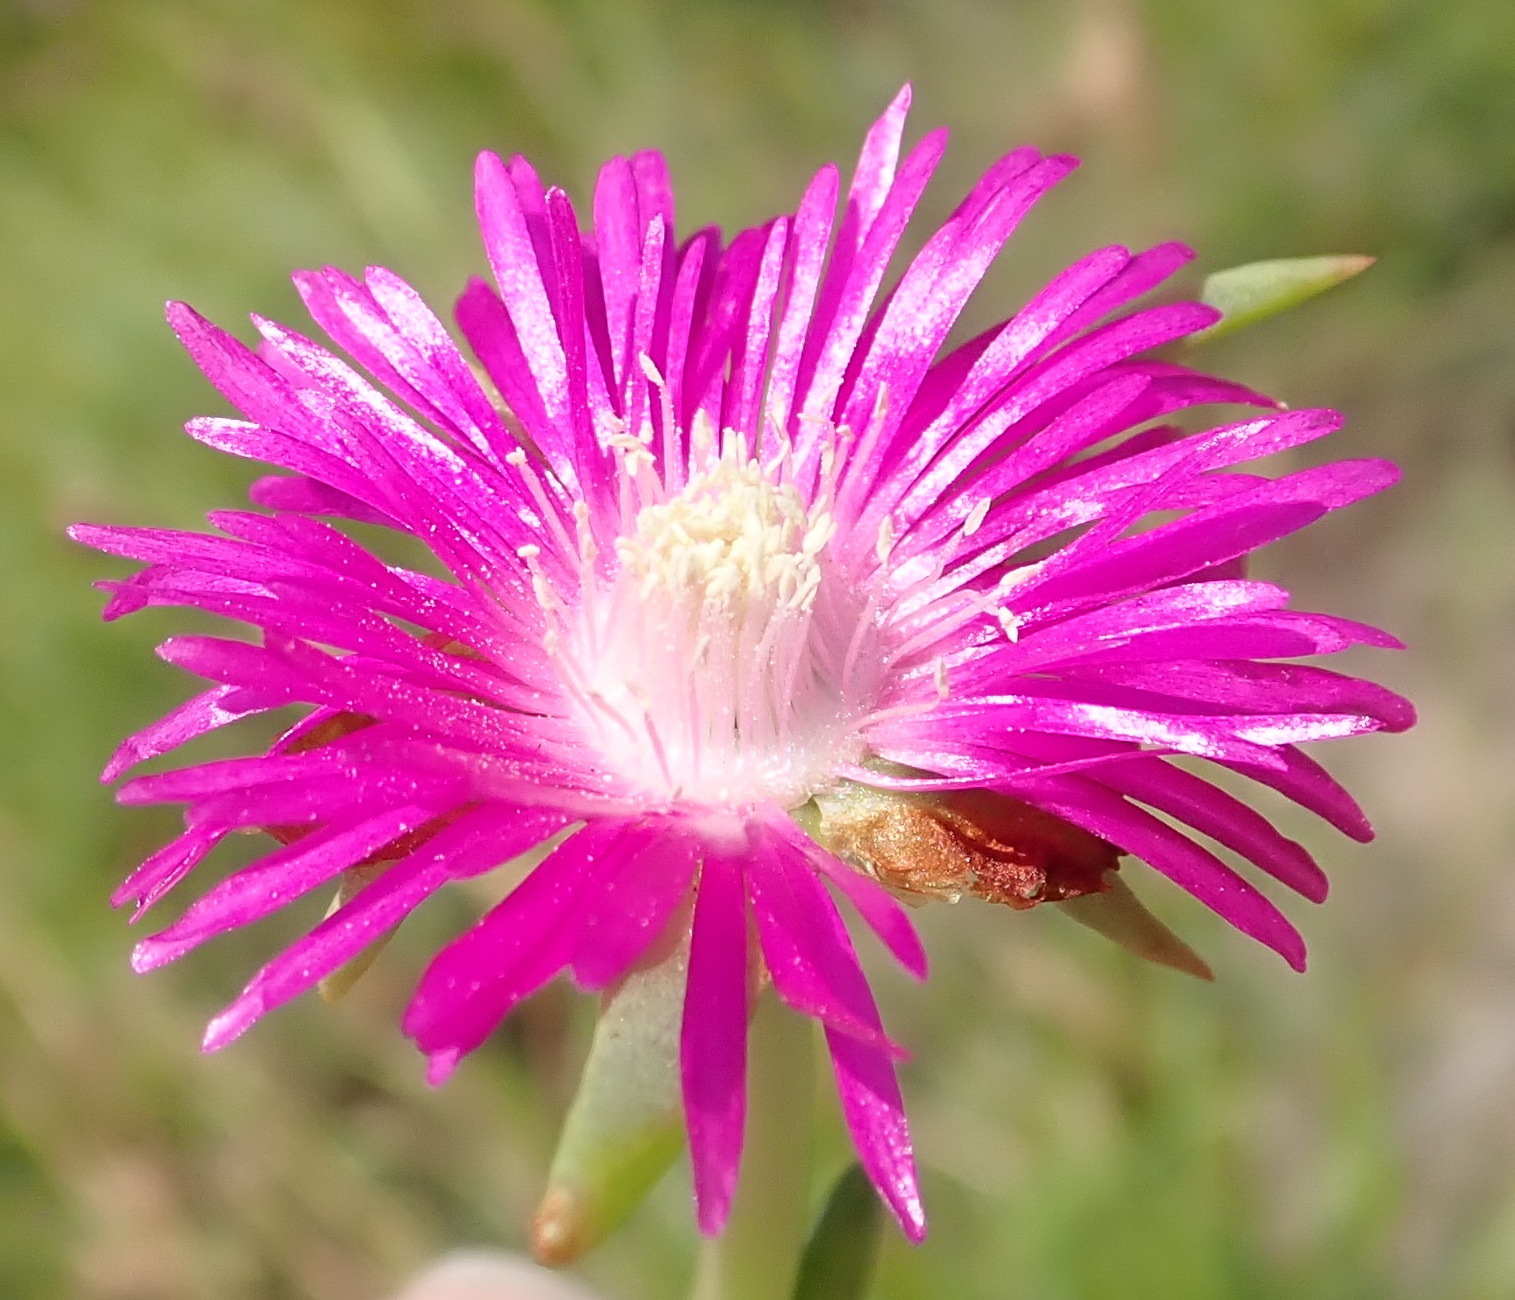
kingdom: Plantae
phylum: Tracheophyta
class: Magnoliopsida
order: Caryophyllales
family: Aizoaceae
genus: Ruschia
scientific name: Ruschia duthiae
